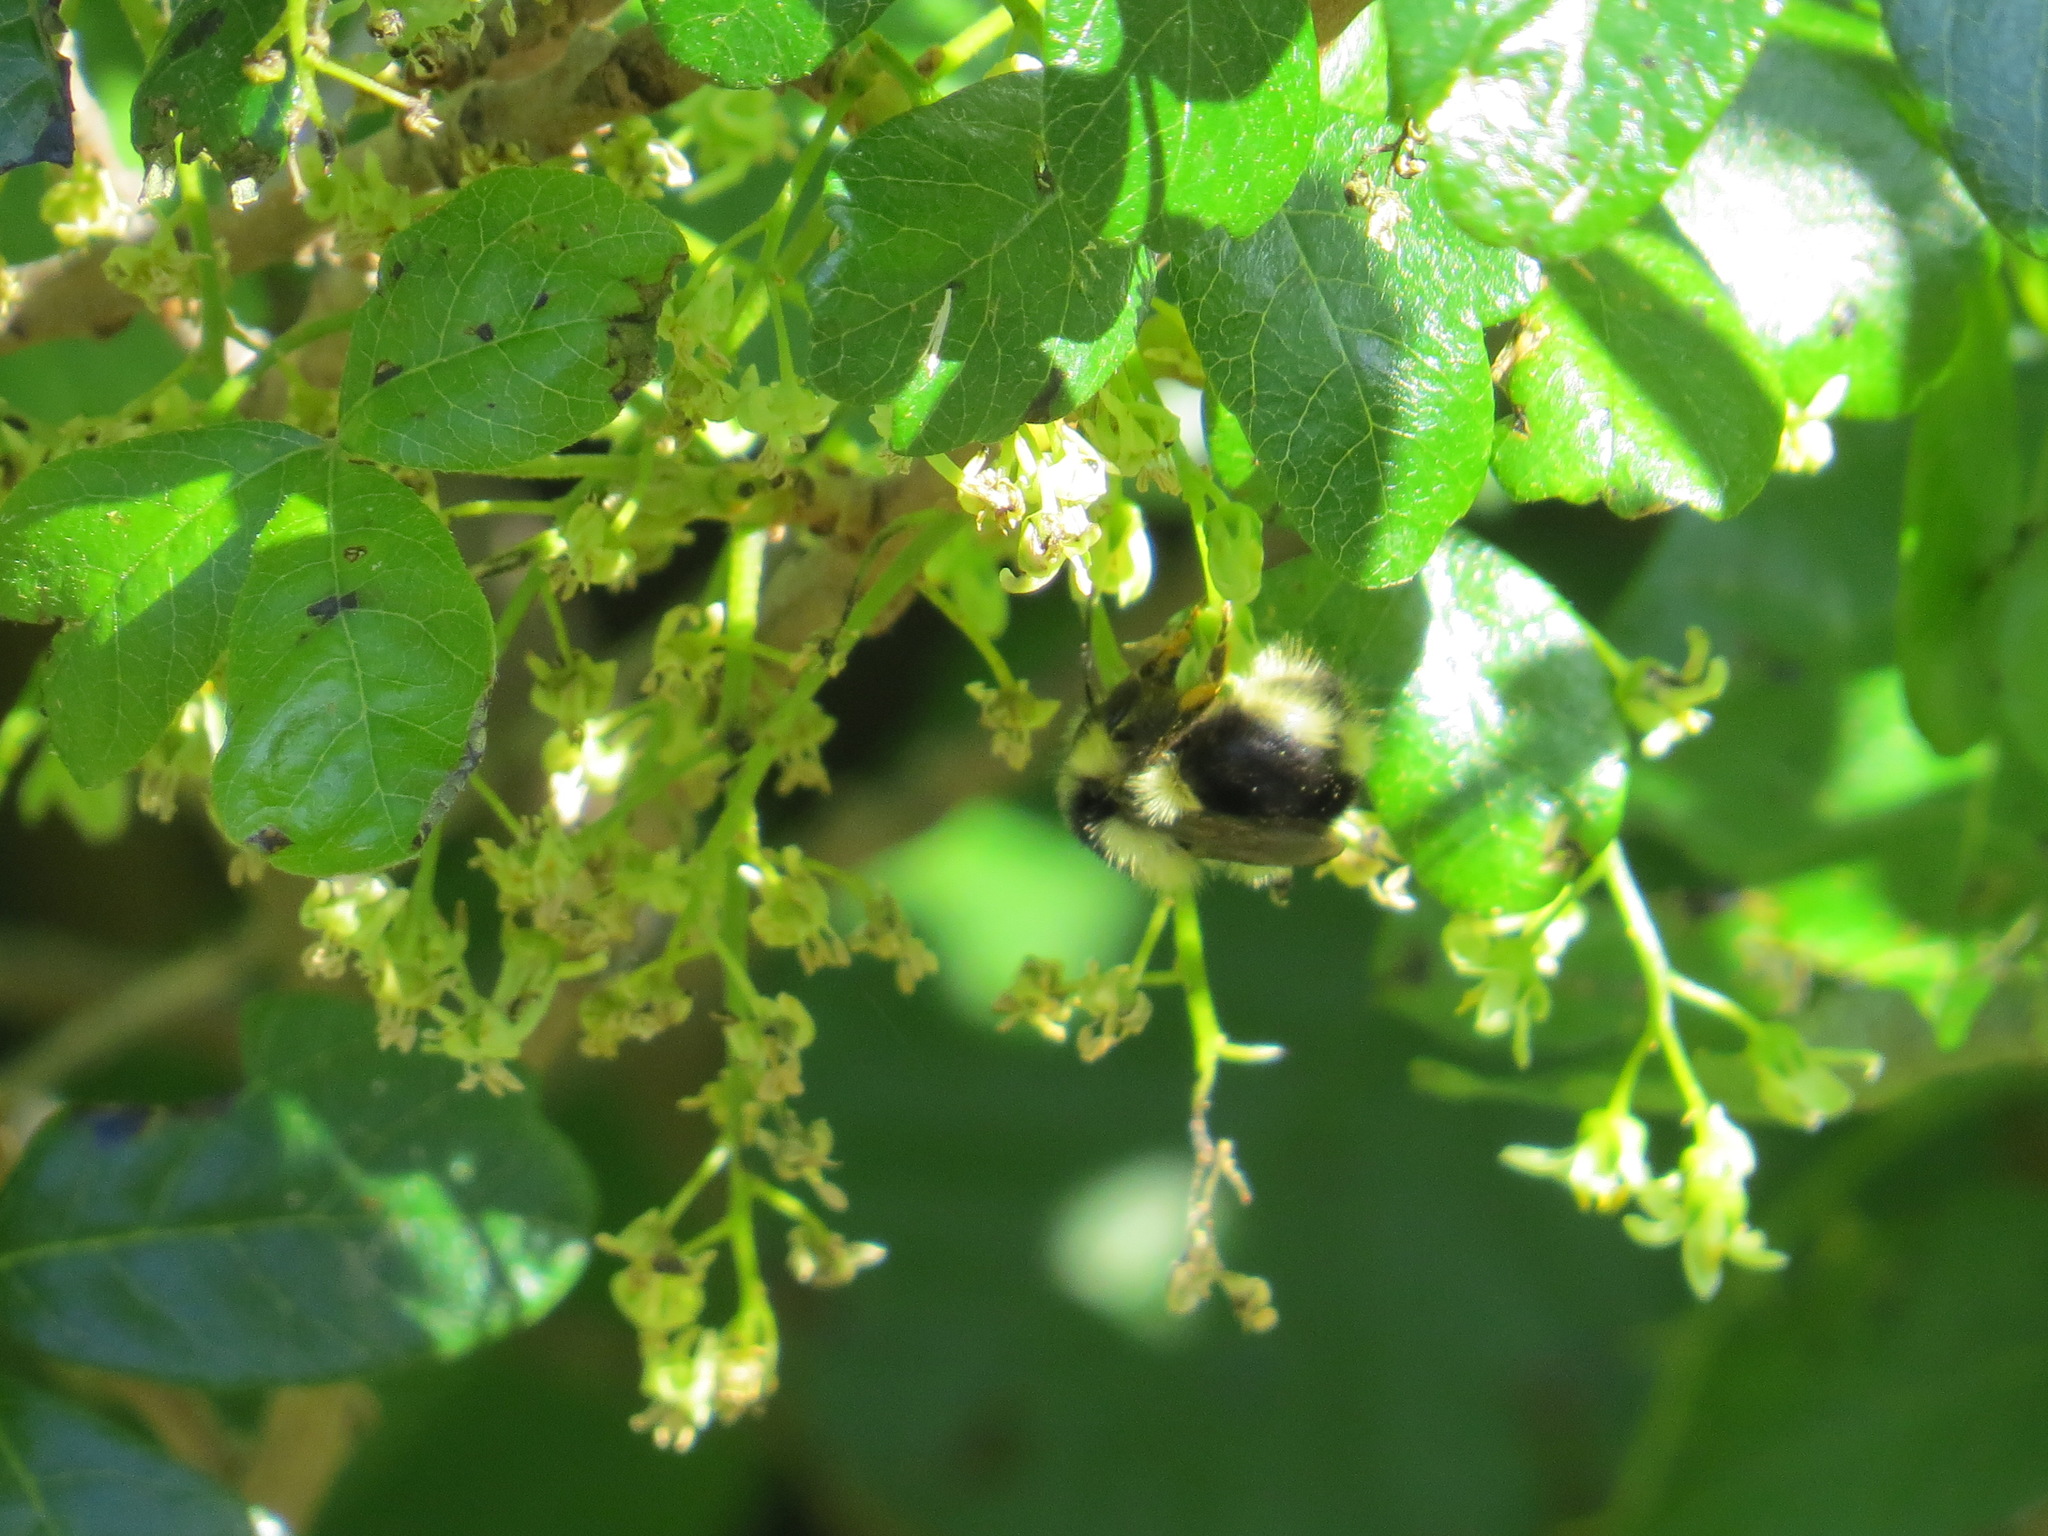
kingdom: Animalia
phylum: Arthropoda
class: Insecta
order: Hymenoptera
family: Apidae
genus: Bombus
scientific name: Bombus melanopygus
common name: Black tail bumble bee
